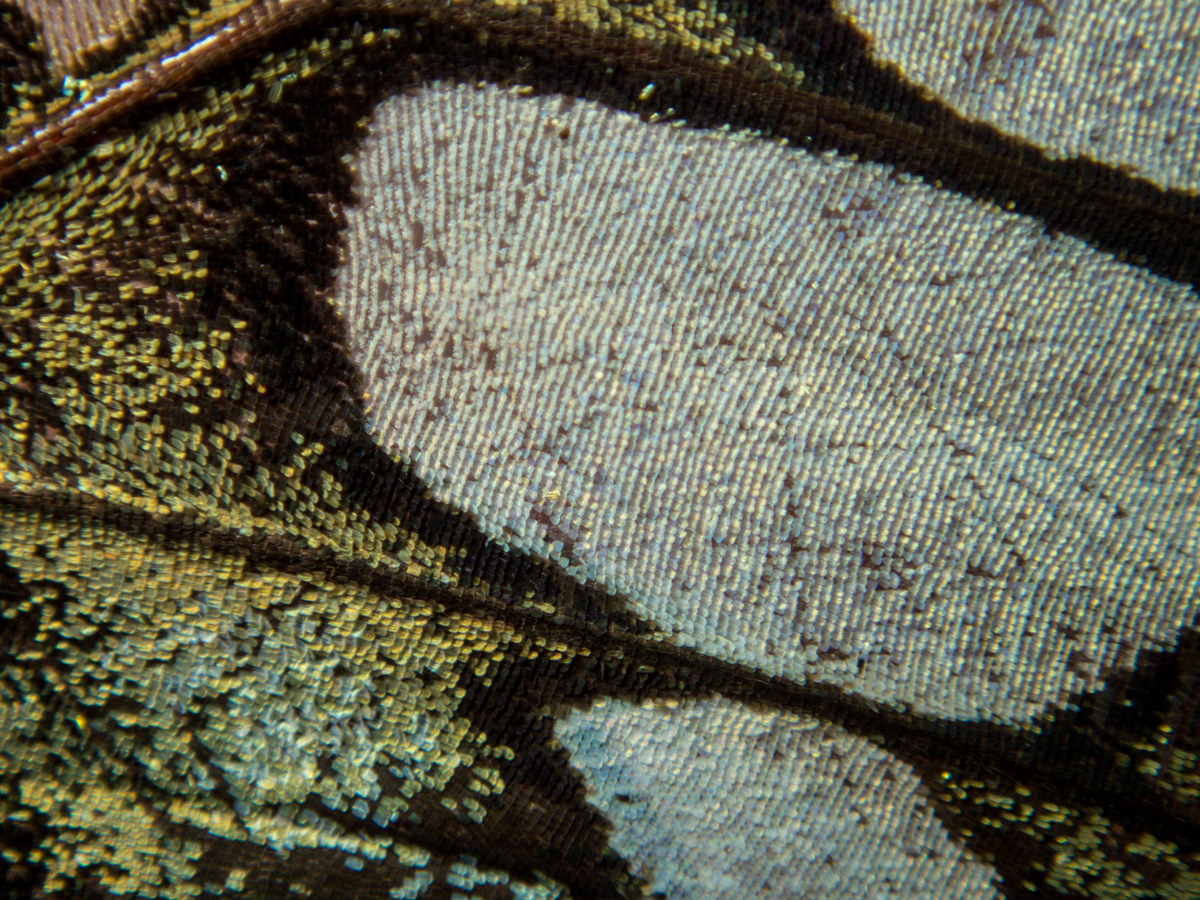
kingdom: Animalia
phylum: Arthropoda
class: Insecta
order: Lepidoptera
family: Nymphalidae
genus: Kallima
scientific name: Kallima sylvia
